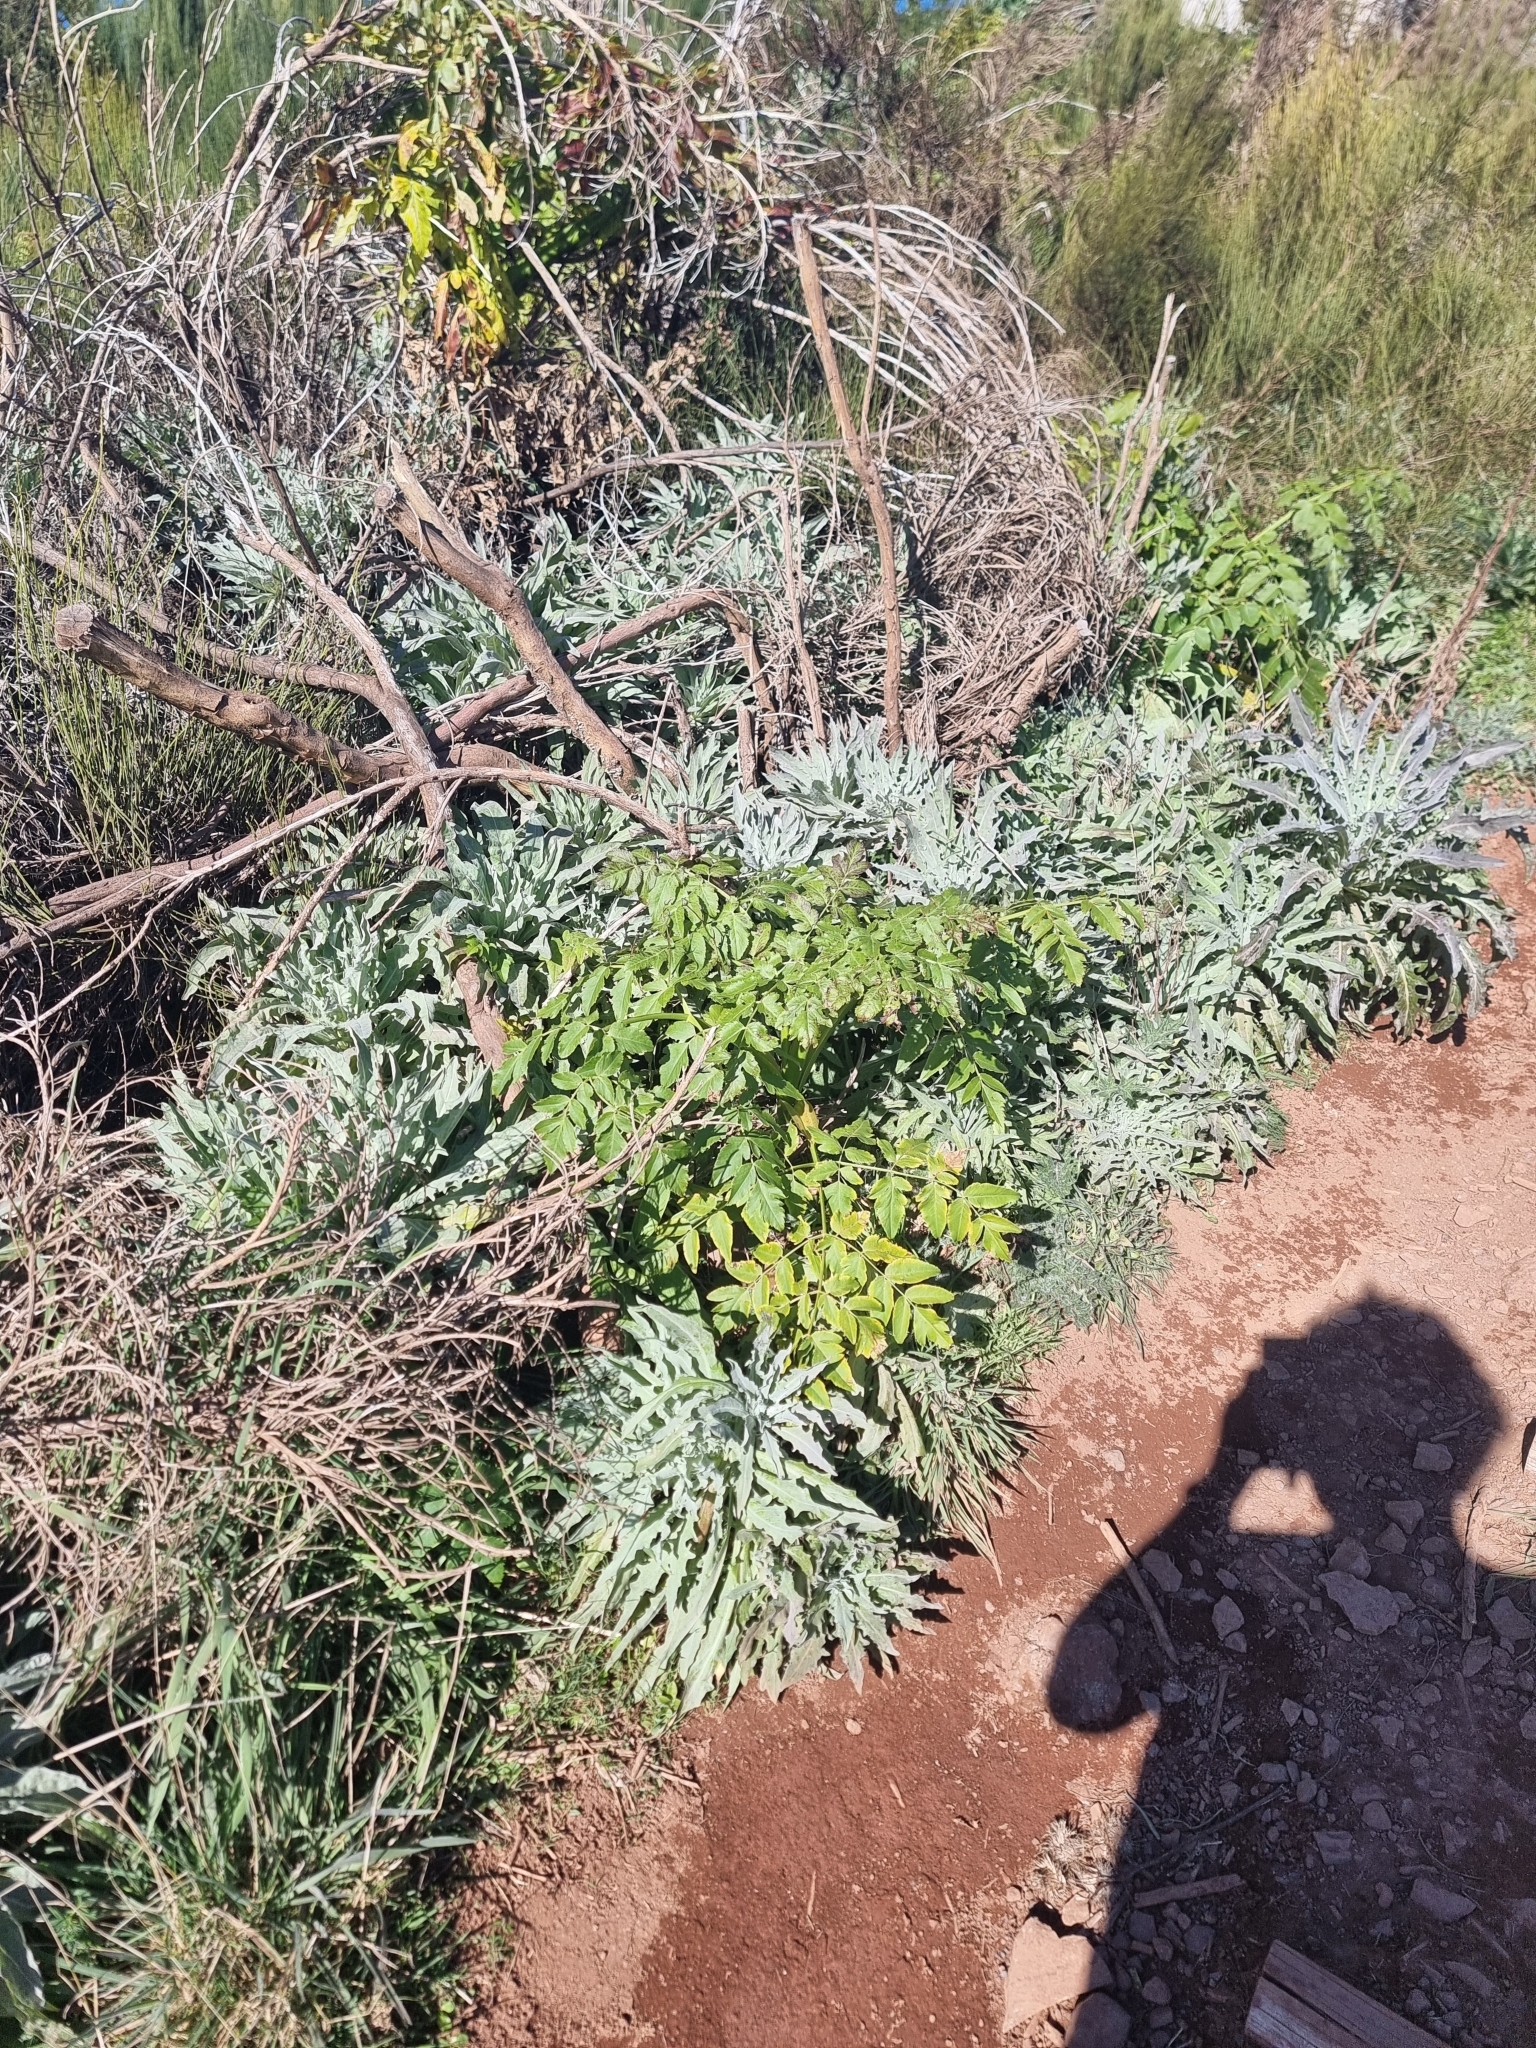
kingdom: Plantae
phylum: Tracheophyta
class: Magnoliopsida
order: Apiales
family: Apiaceae
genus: Daucus
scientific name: Daucus decipiens
